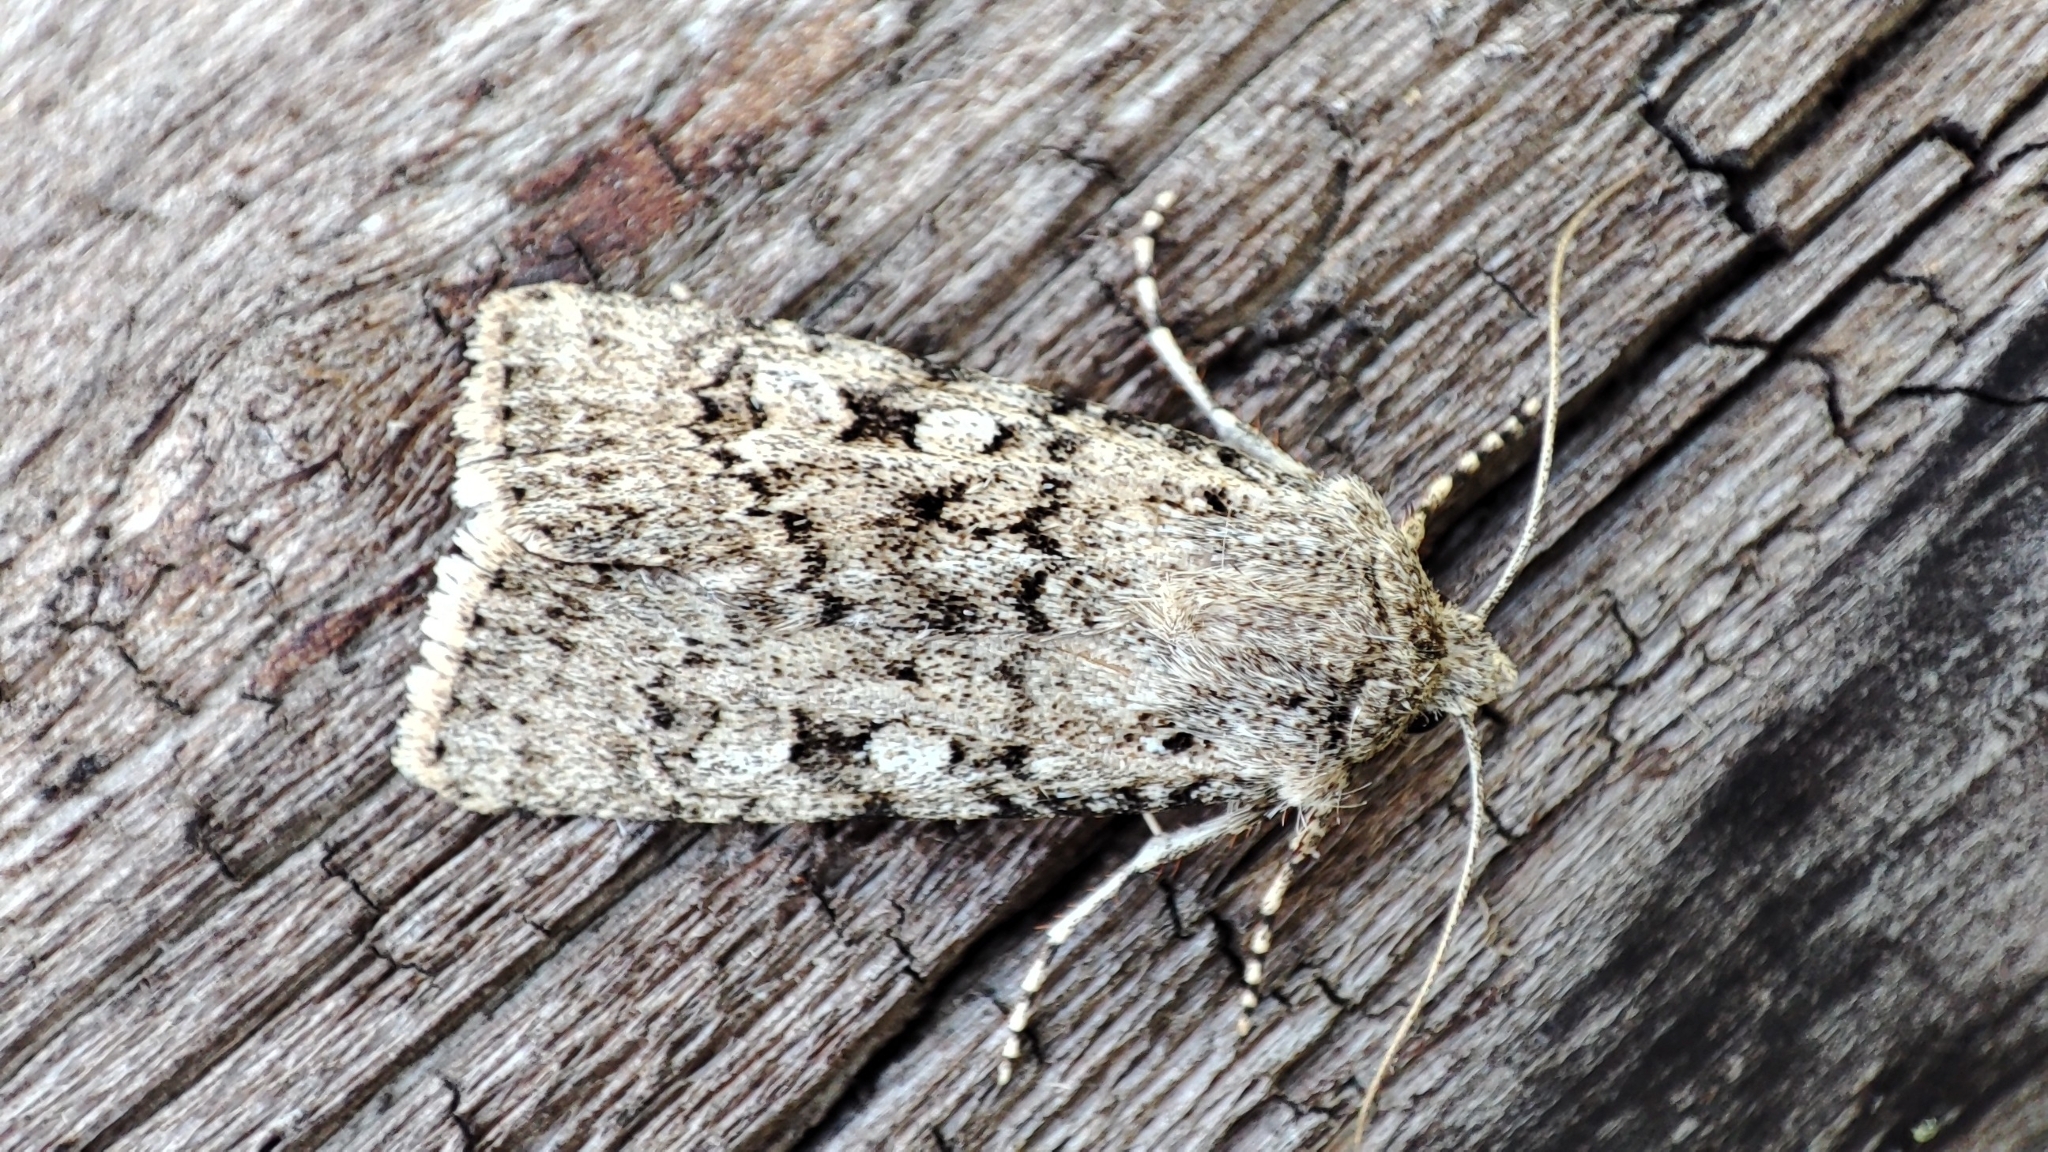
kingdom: Animalia
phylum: Arthropoda
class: Insecta
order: Lepidoptera
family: Noctuidae
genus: Euxoa
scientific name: Euxoa deserta
